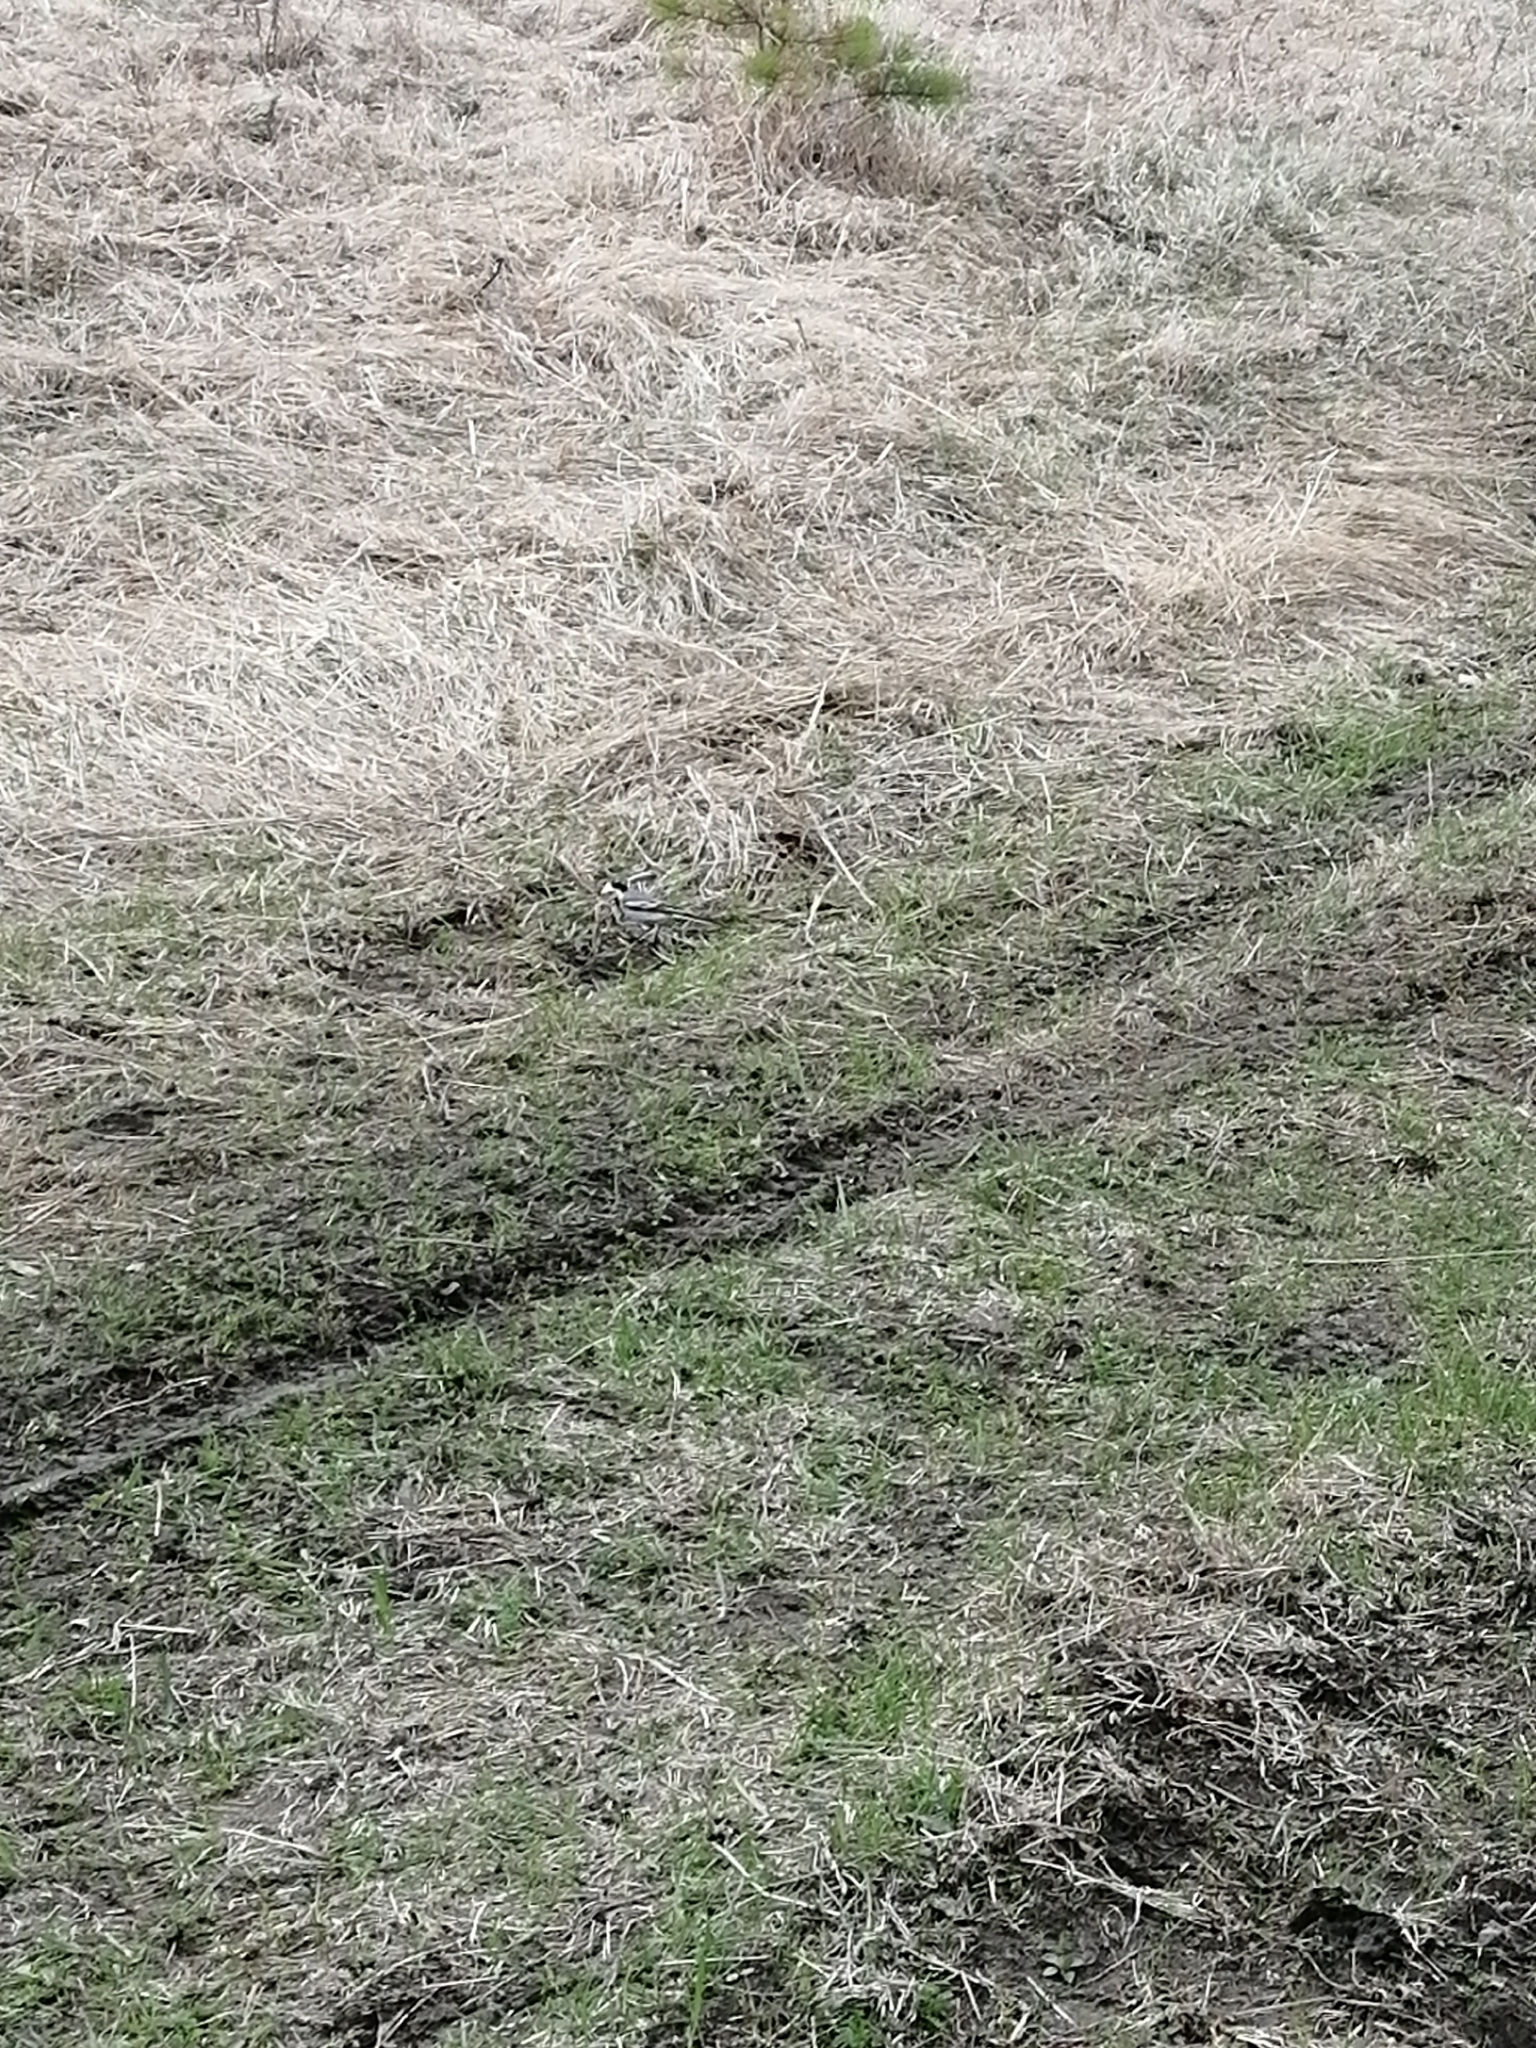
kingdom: Animalia
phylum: Chordata
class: Aves
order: Passeriformes
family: Motacillidae
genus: Motacilla
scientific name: Motacilla alba
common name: White wagtail
